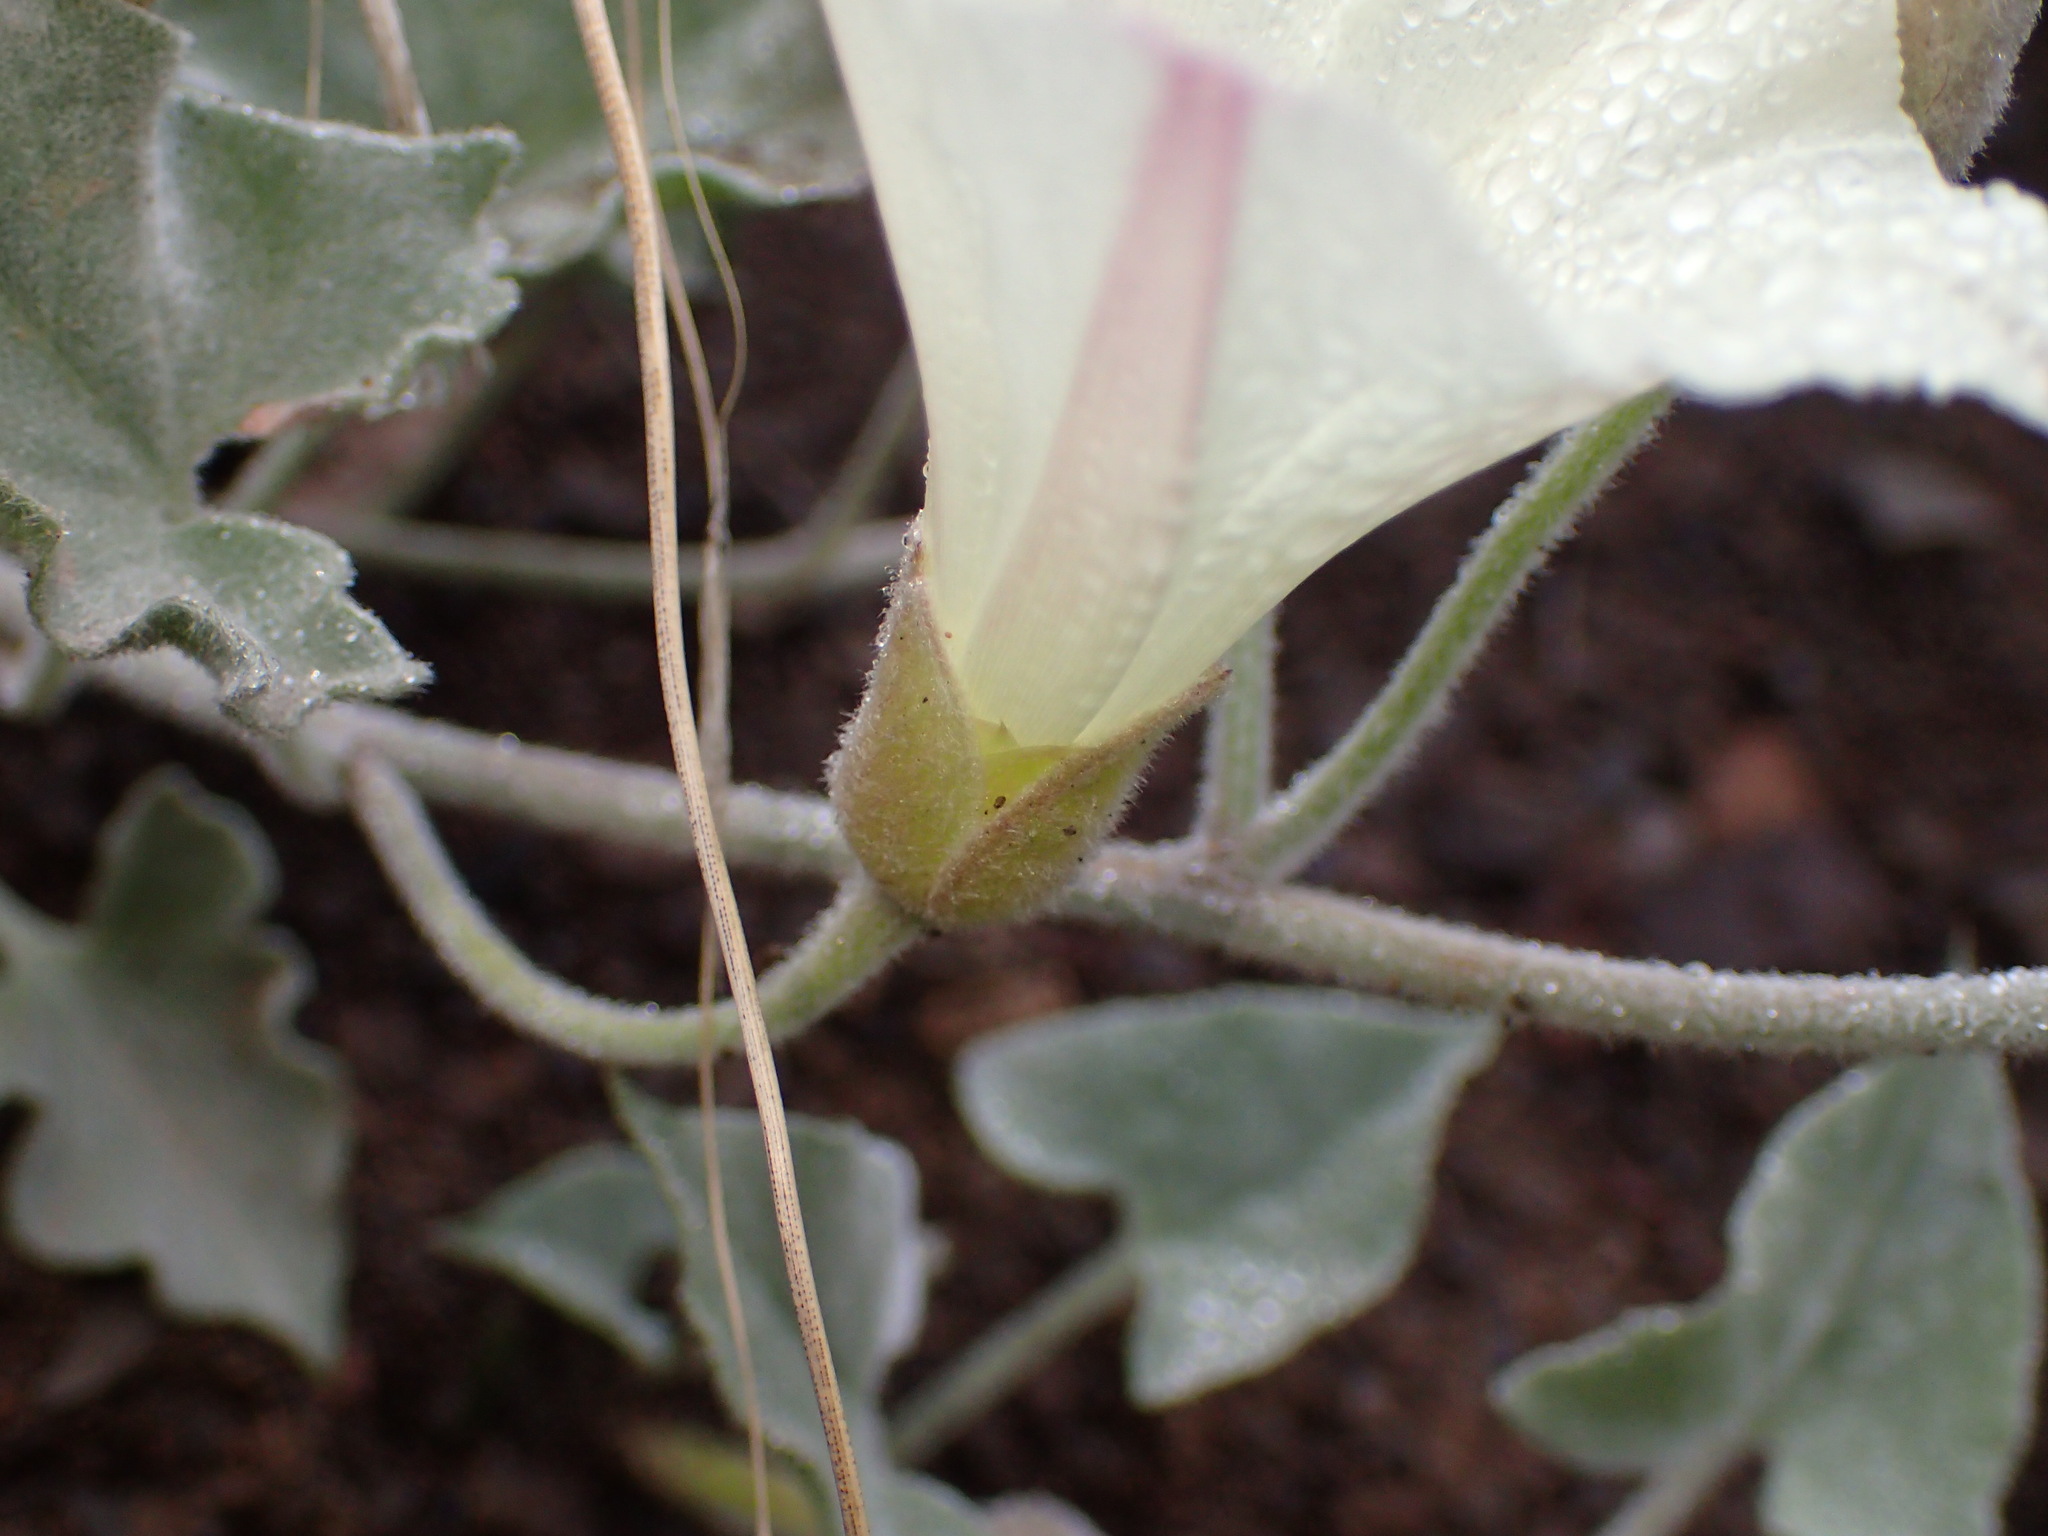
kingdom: Plantae
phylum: Tracheophyta
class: Magnoliopsida
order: Solanales
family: Convolvulaceae
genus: Calystegia
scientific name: Calystegia malacophylla
